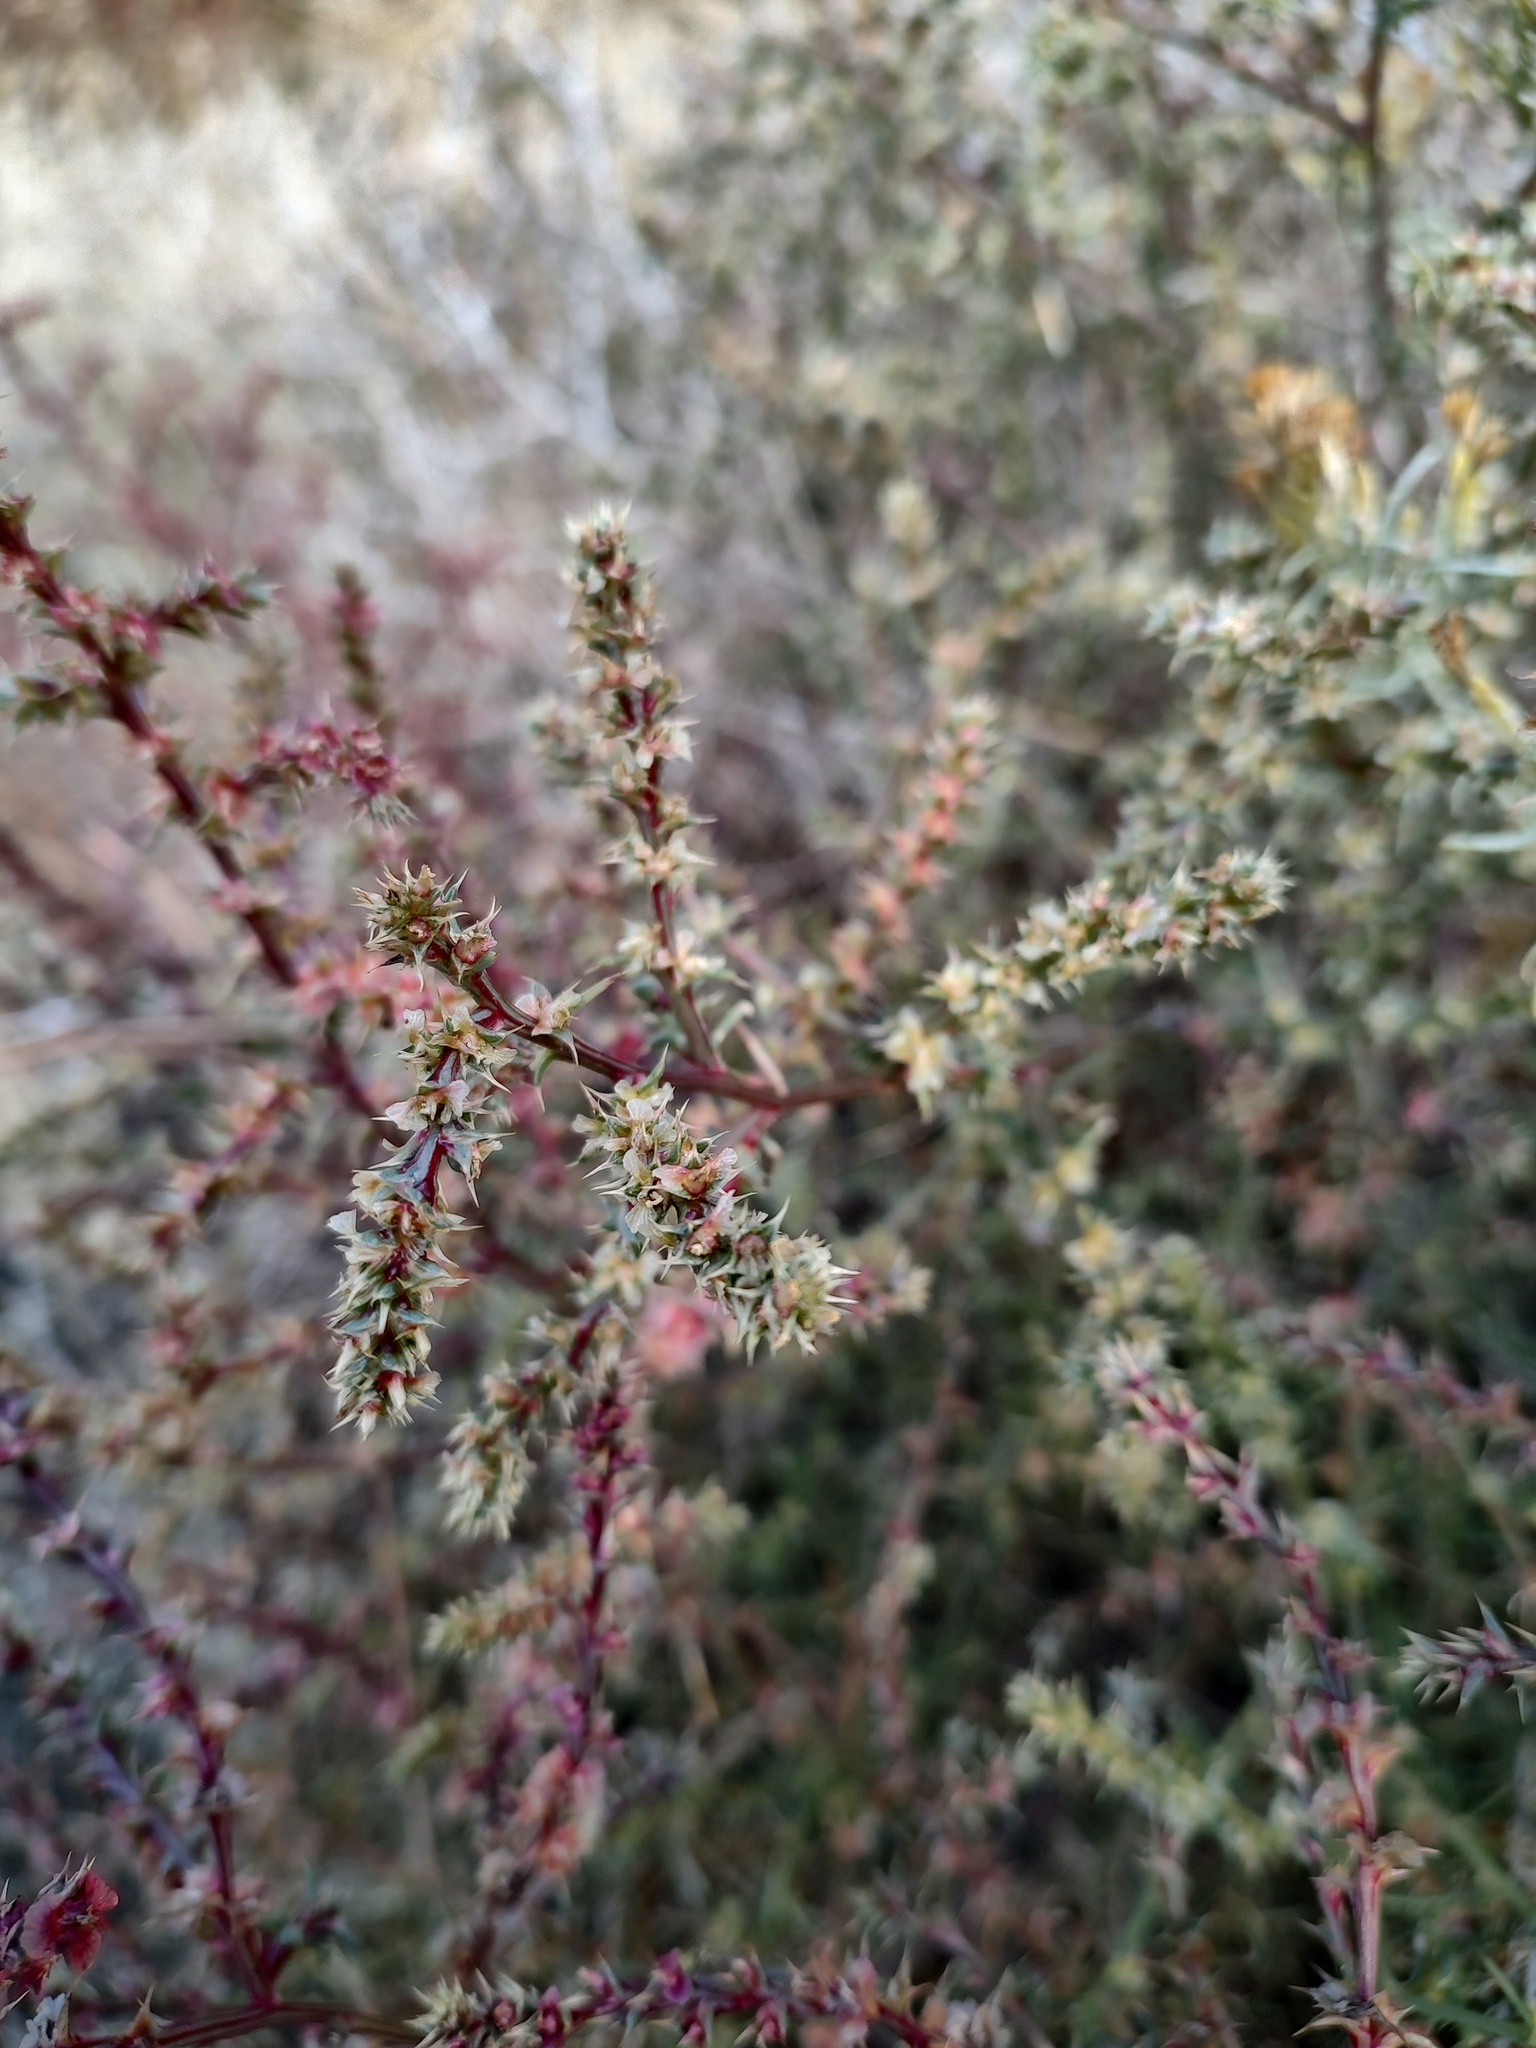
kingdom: Plantae
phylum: Tracheophyta
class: Magnoliopsida
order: Caryophyllales
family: Amaranthaceae
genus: Salsola
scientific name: Salsola tragus
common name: Prickly russian thistle
